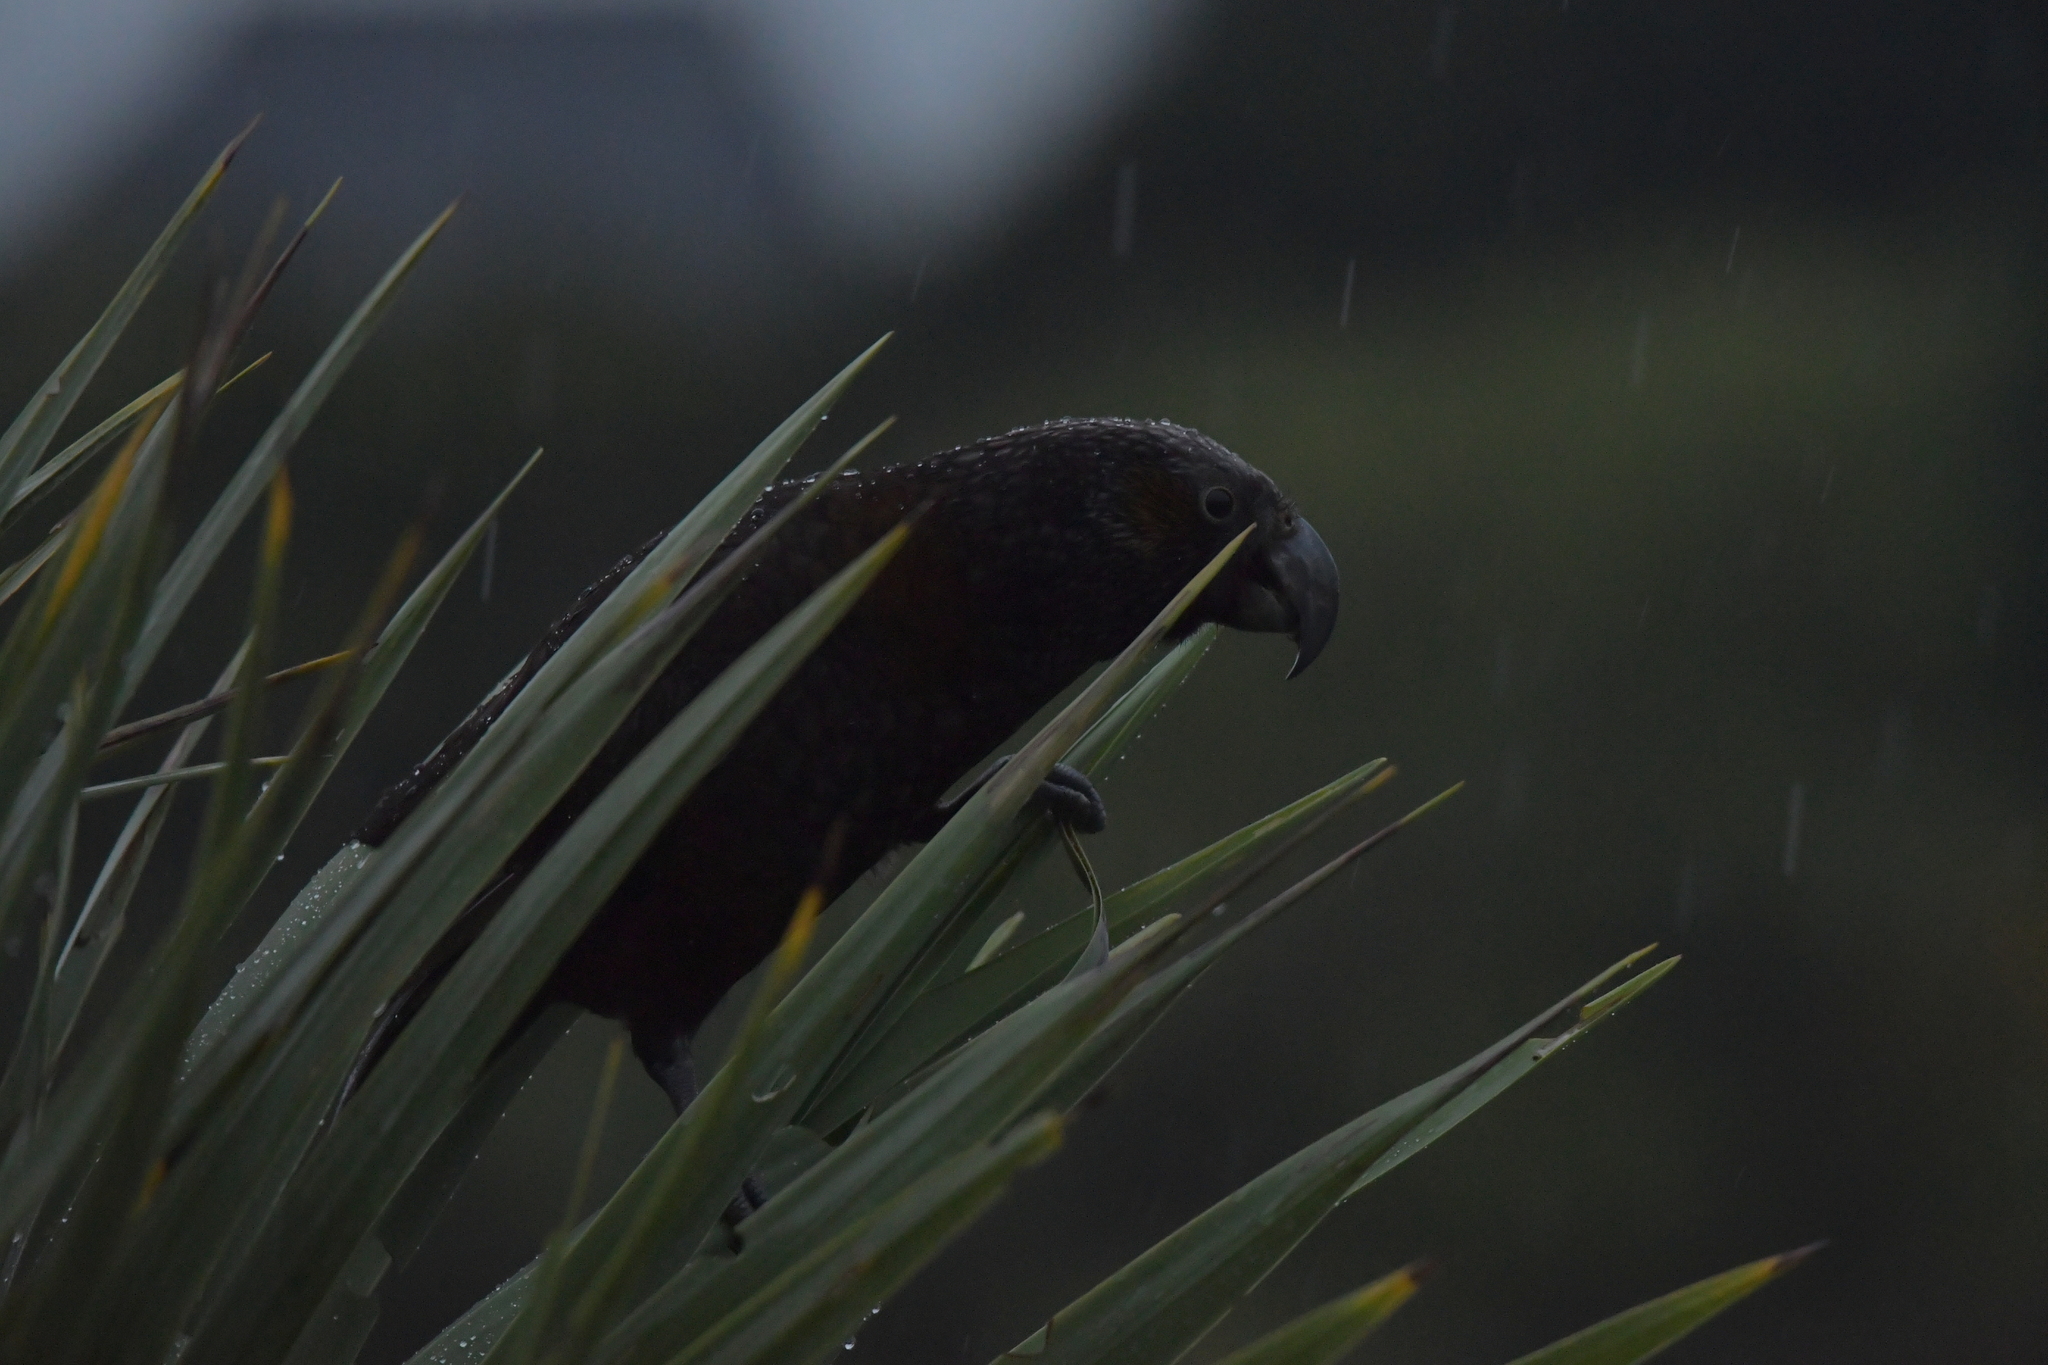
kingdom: Animalia
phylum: Chordata
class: Aves
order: Psittaciformes
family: Psittacidae
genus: Nestor
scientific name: Nestor meridionalis
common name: New zealand kaka
